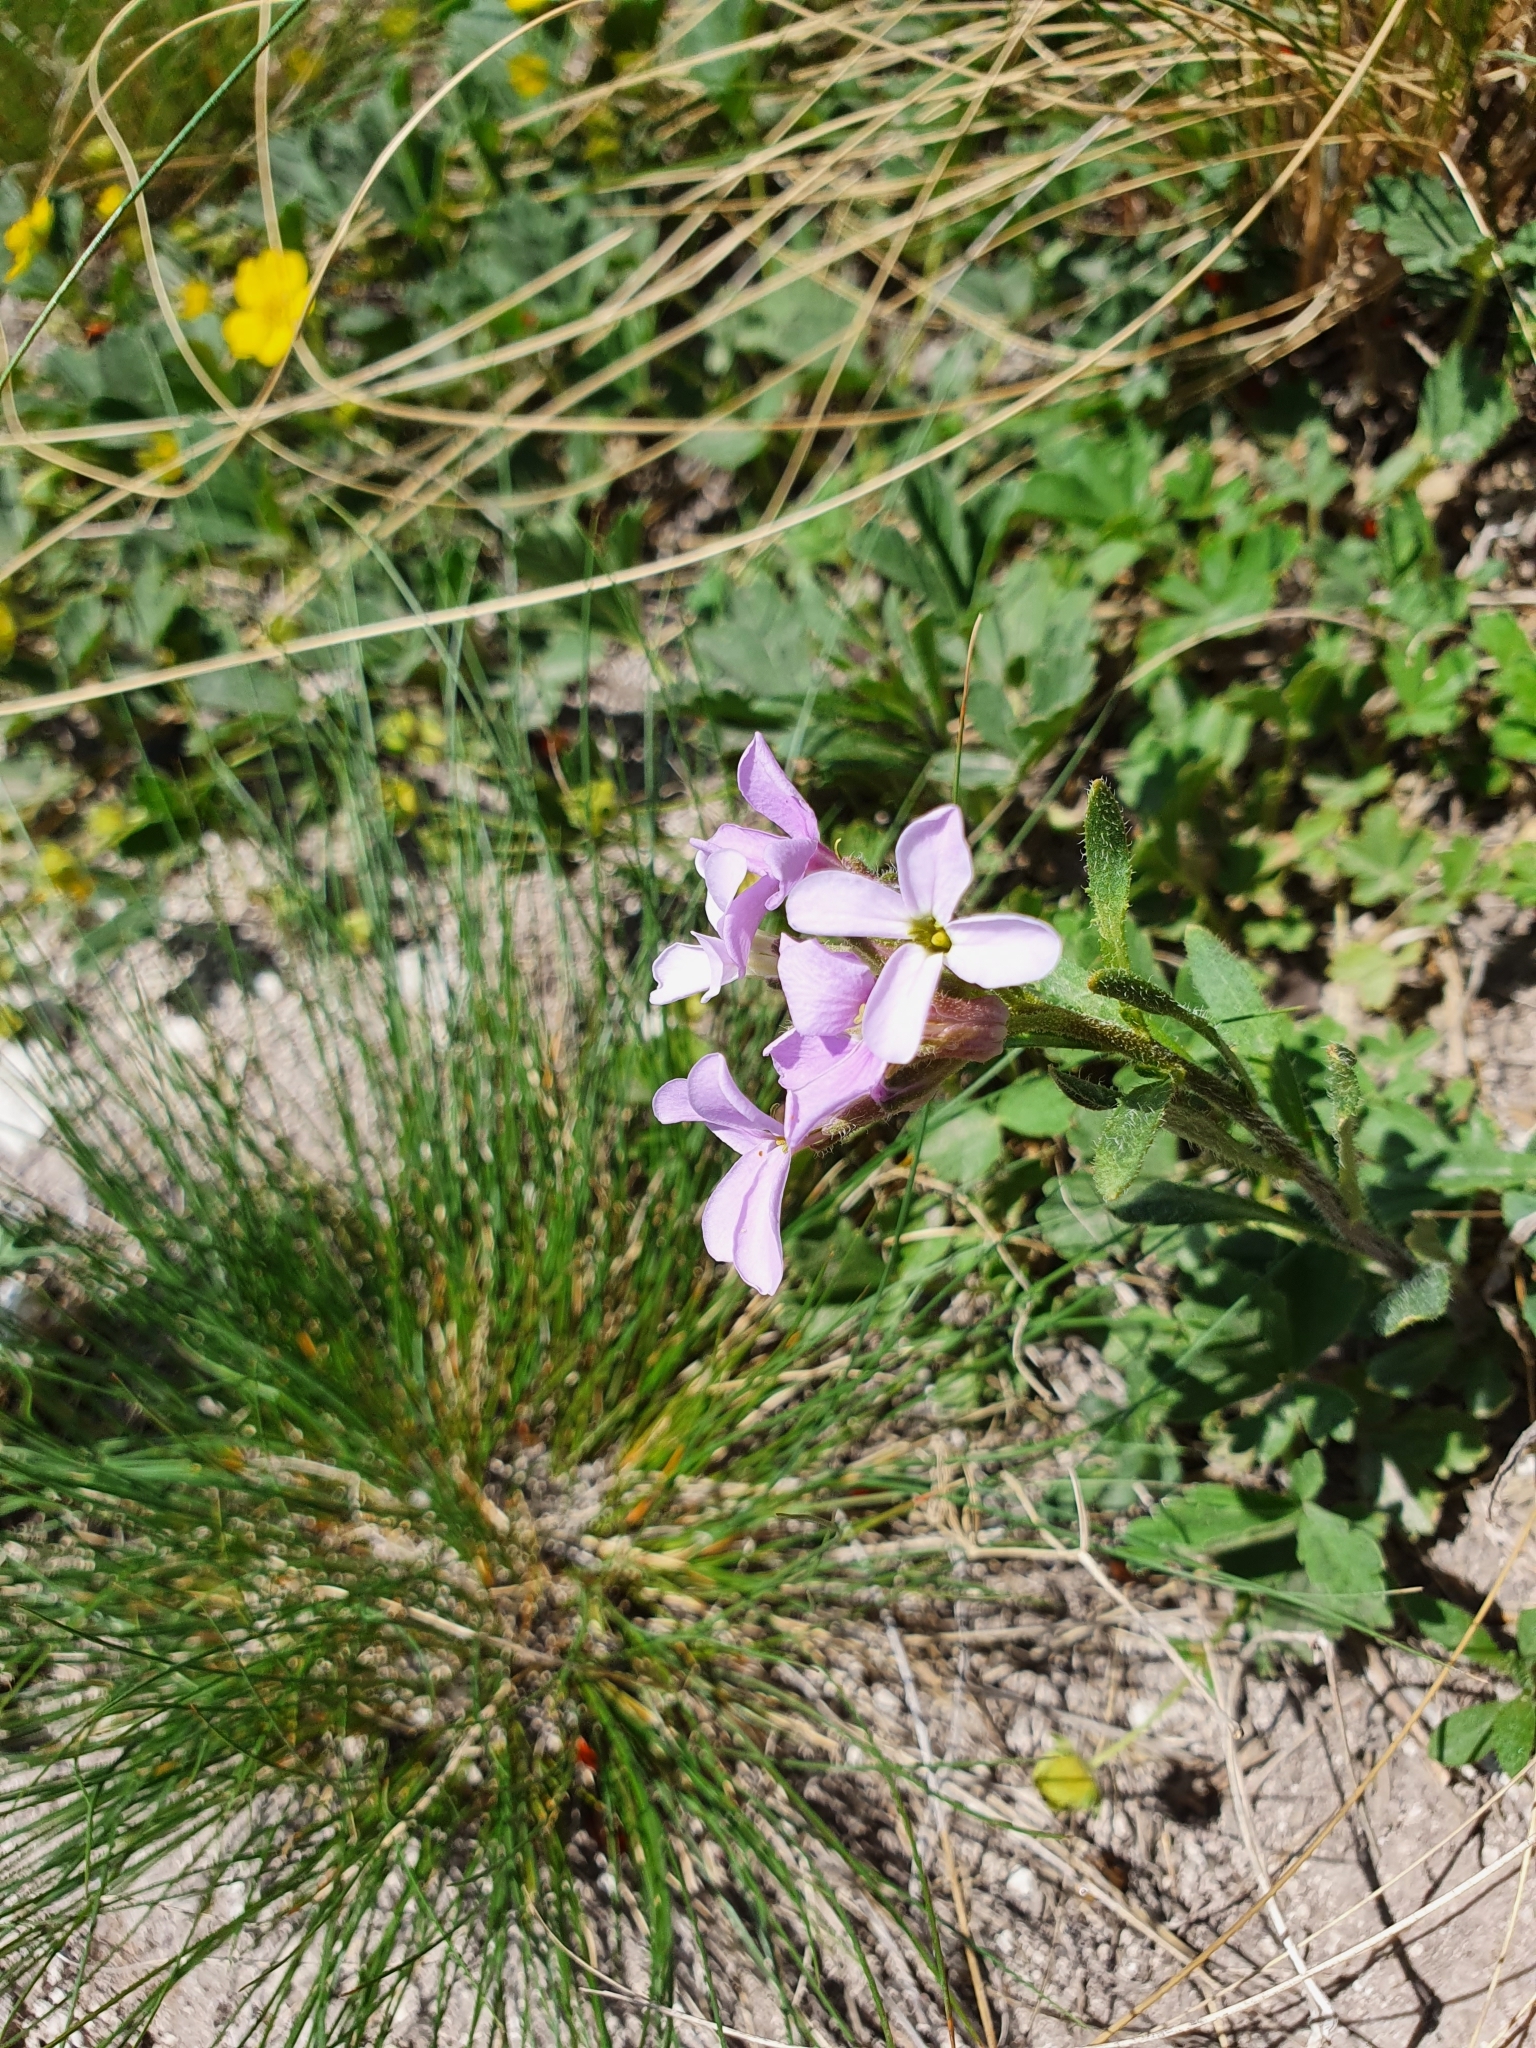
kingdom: Plantae
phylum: Tracheophyta
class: Magnoliopsida
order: Brassicales
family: Brassicaceae
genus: Clausia
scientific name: Clausia aprica
